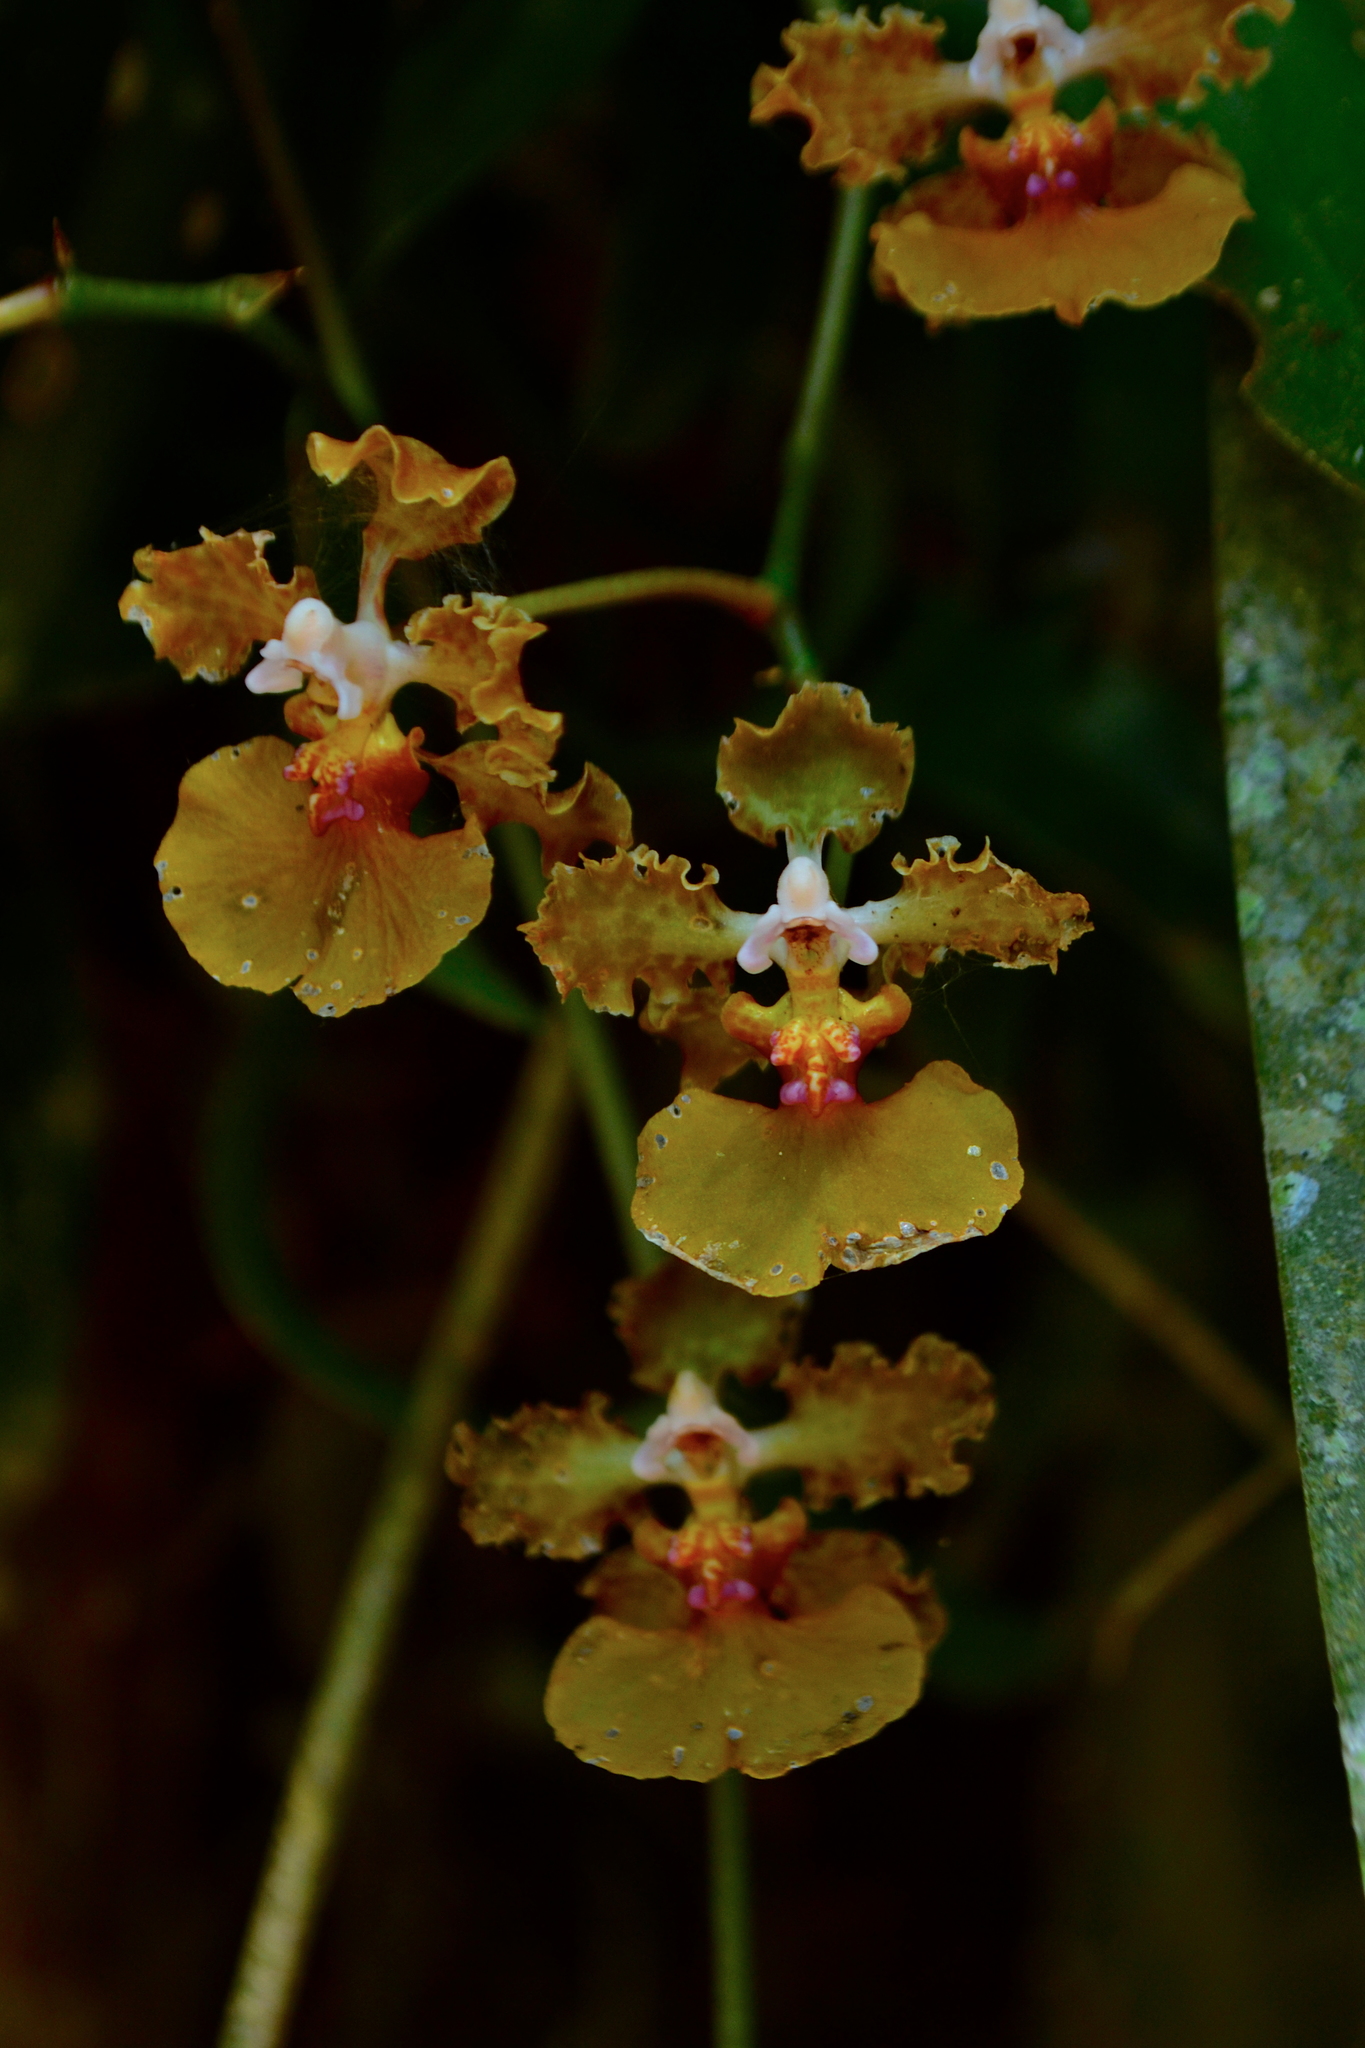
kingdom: Plantae
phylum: Tracheophyta
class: Liliopsida
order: Asparagales
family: Orchidaceae
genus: Trichocentrum
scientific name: Trichocentrum luridum
